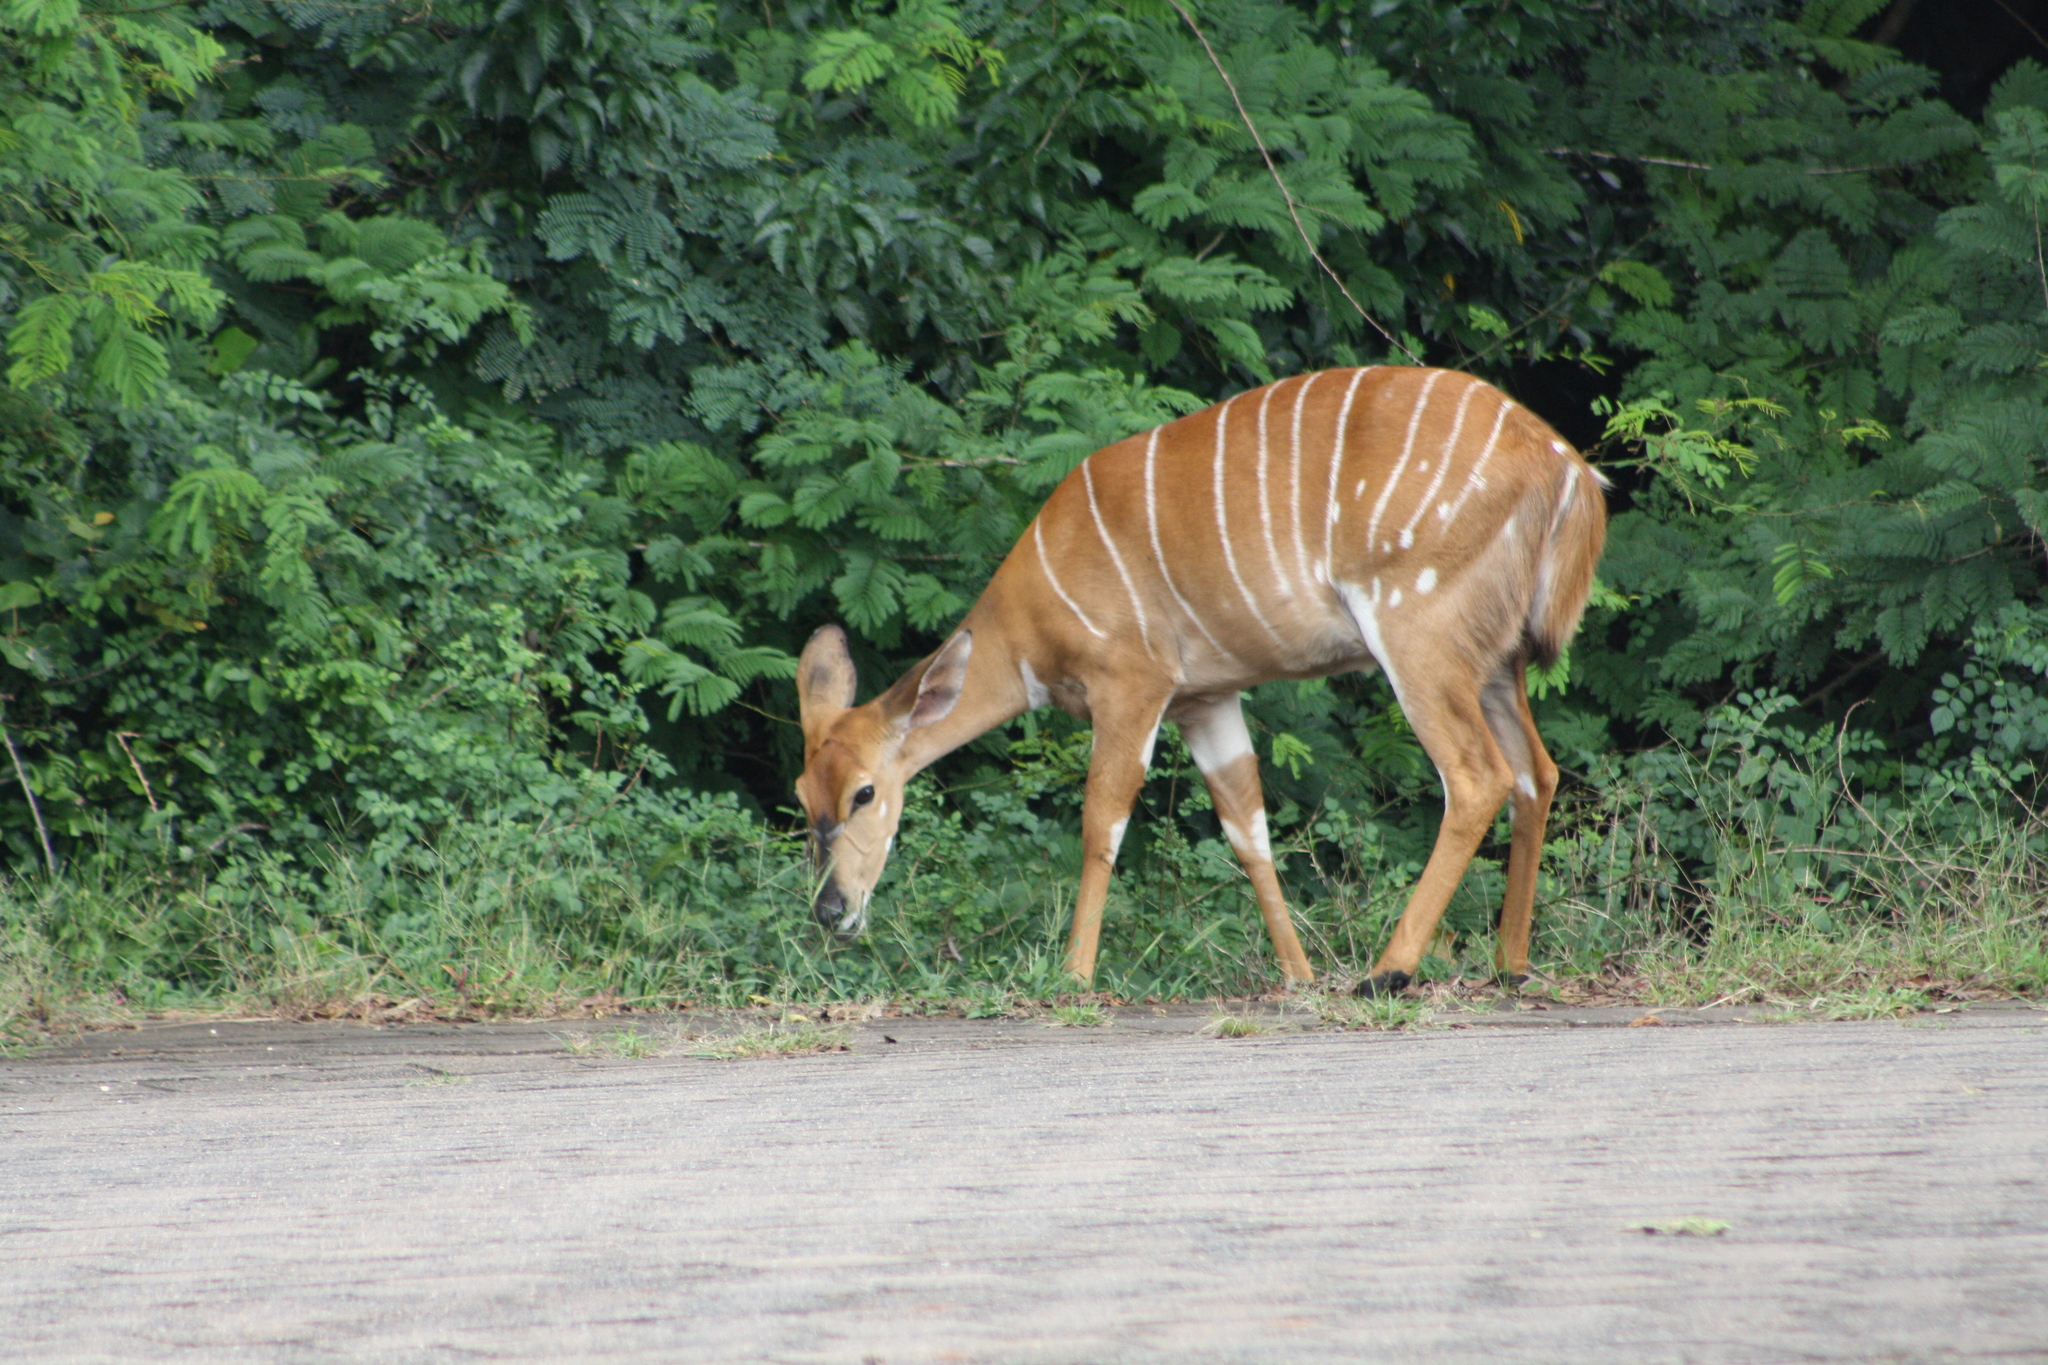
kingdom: Animalia
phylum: Chordata
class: Mammalia
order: Artiodactyla
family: Bovidae
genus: Tragelaphus
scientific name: Tragelaphus angasii
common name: Nyala
